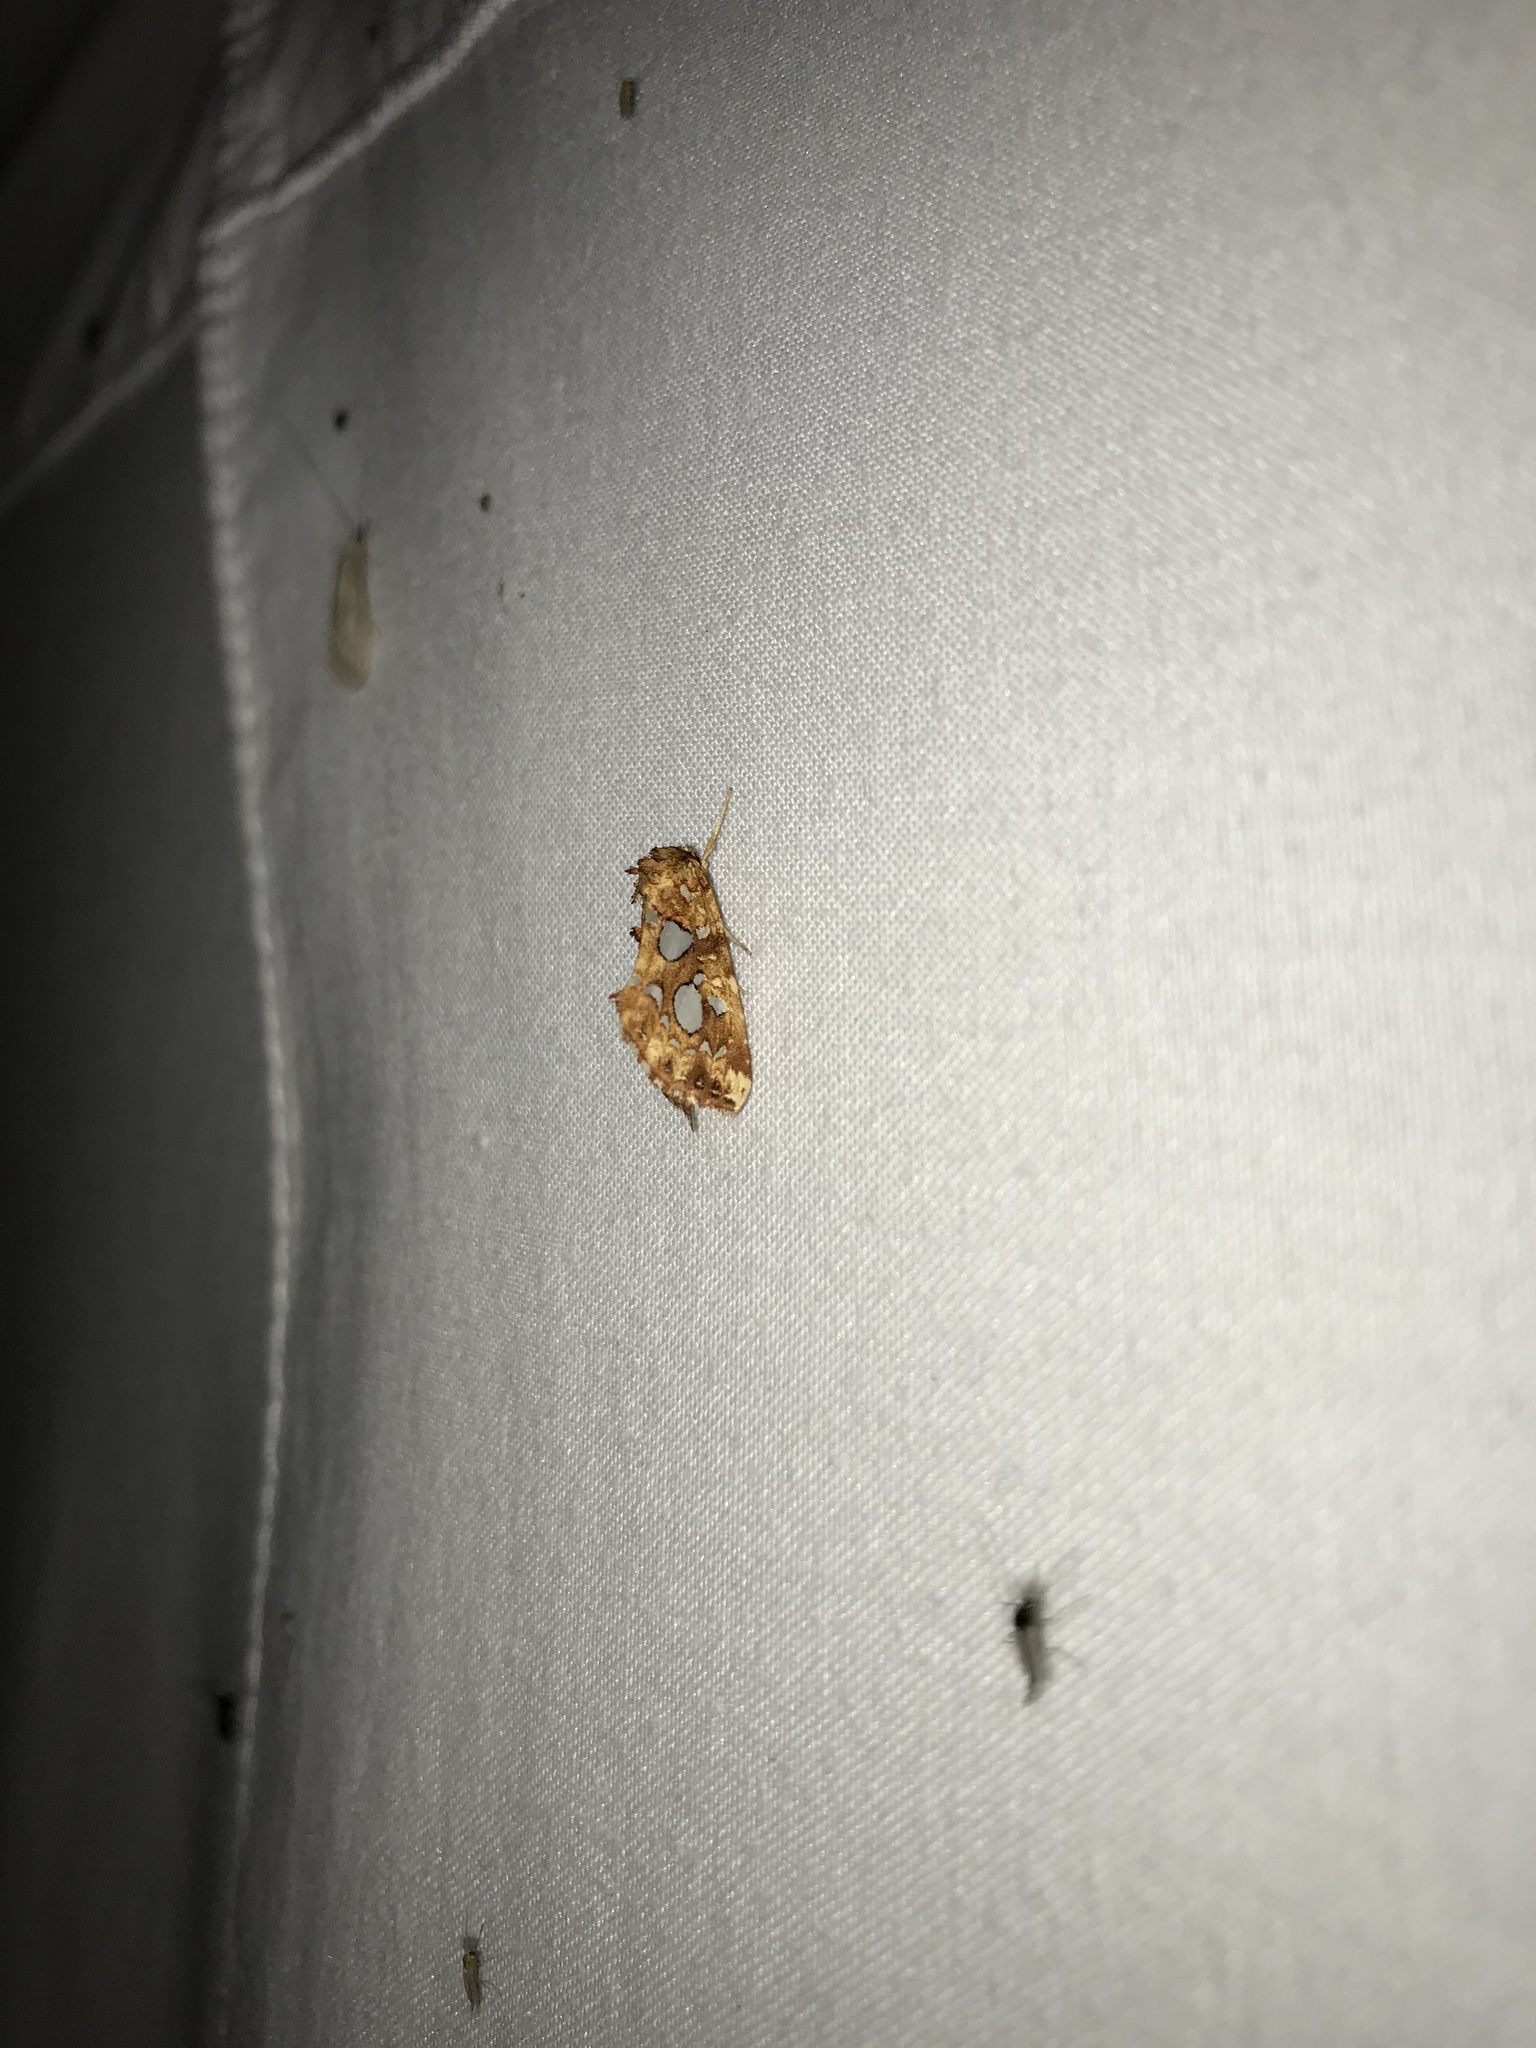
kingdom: Animalia
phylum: Arthropoda
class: Insecta
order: Lepidoptera
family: Noctuidae
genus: Callopistria
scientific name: Callopistria cordata
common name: Silver-spotted fern moth
